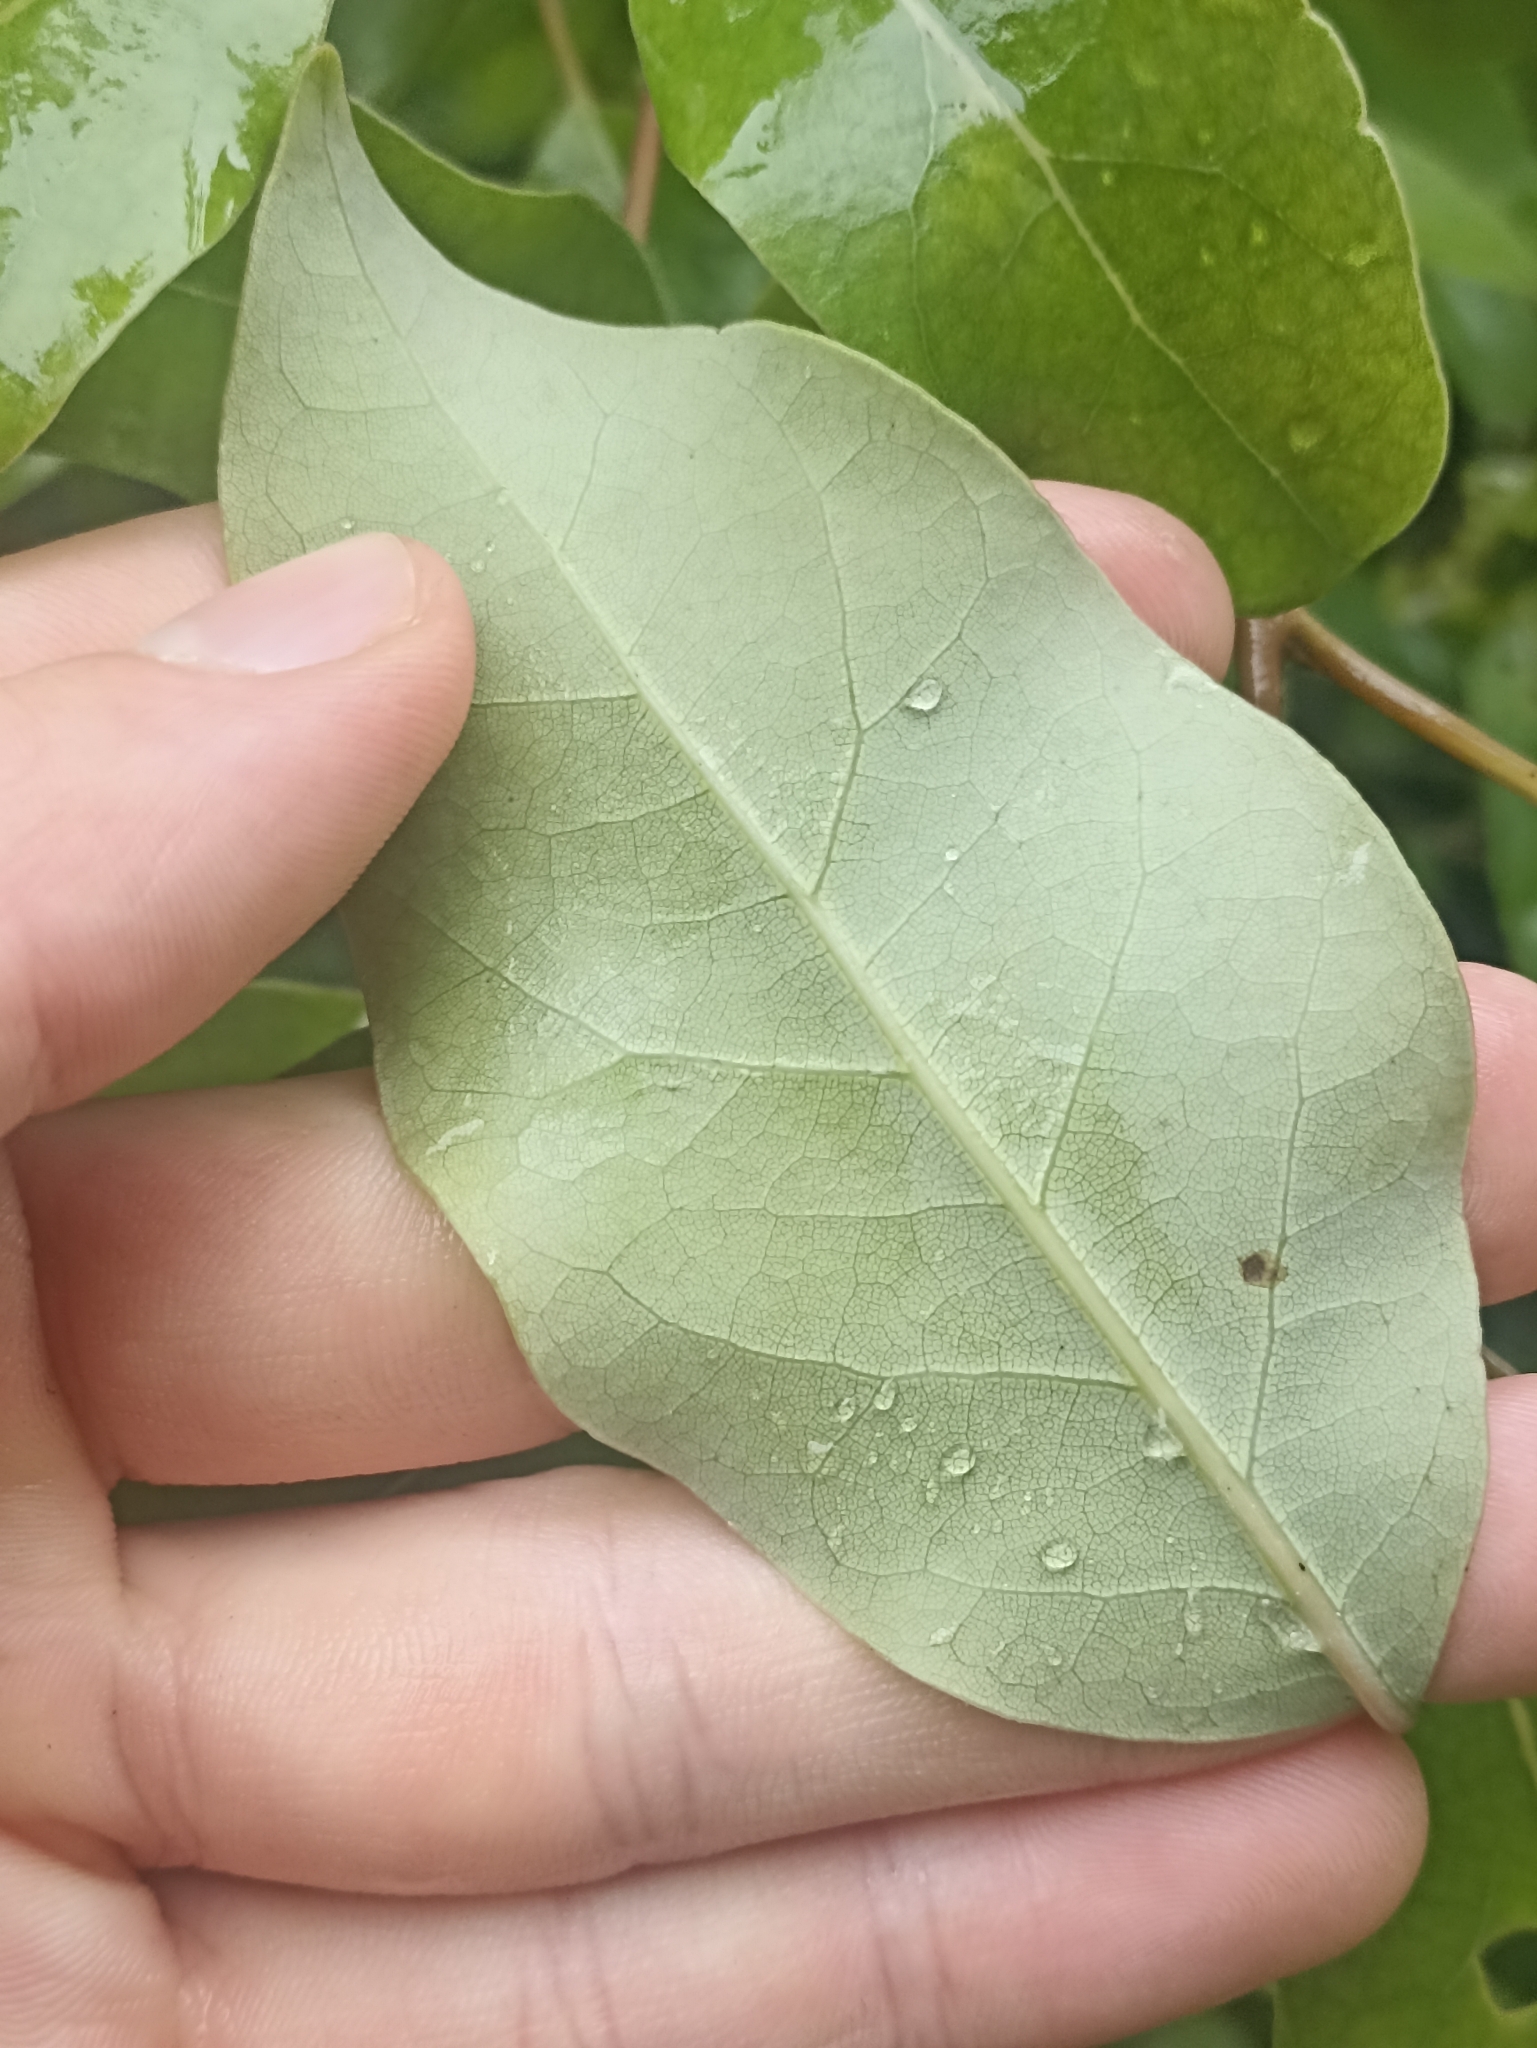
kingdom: Plantae
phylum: Tracheophyta
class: Magnoliopsida
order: Laurales
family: Lauraceae
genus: Litsea
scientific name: Litsea calicaris
